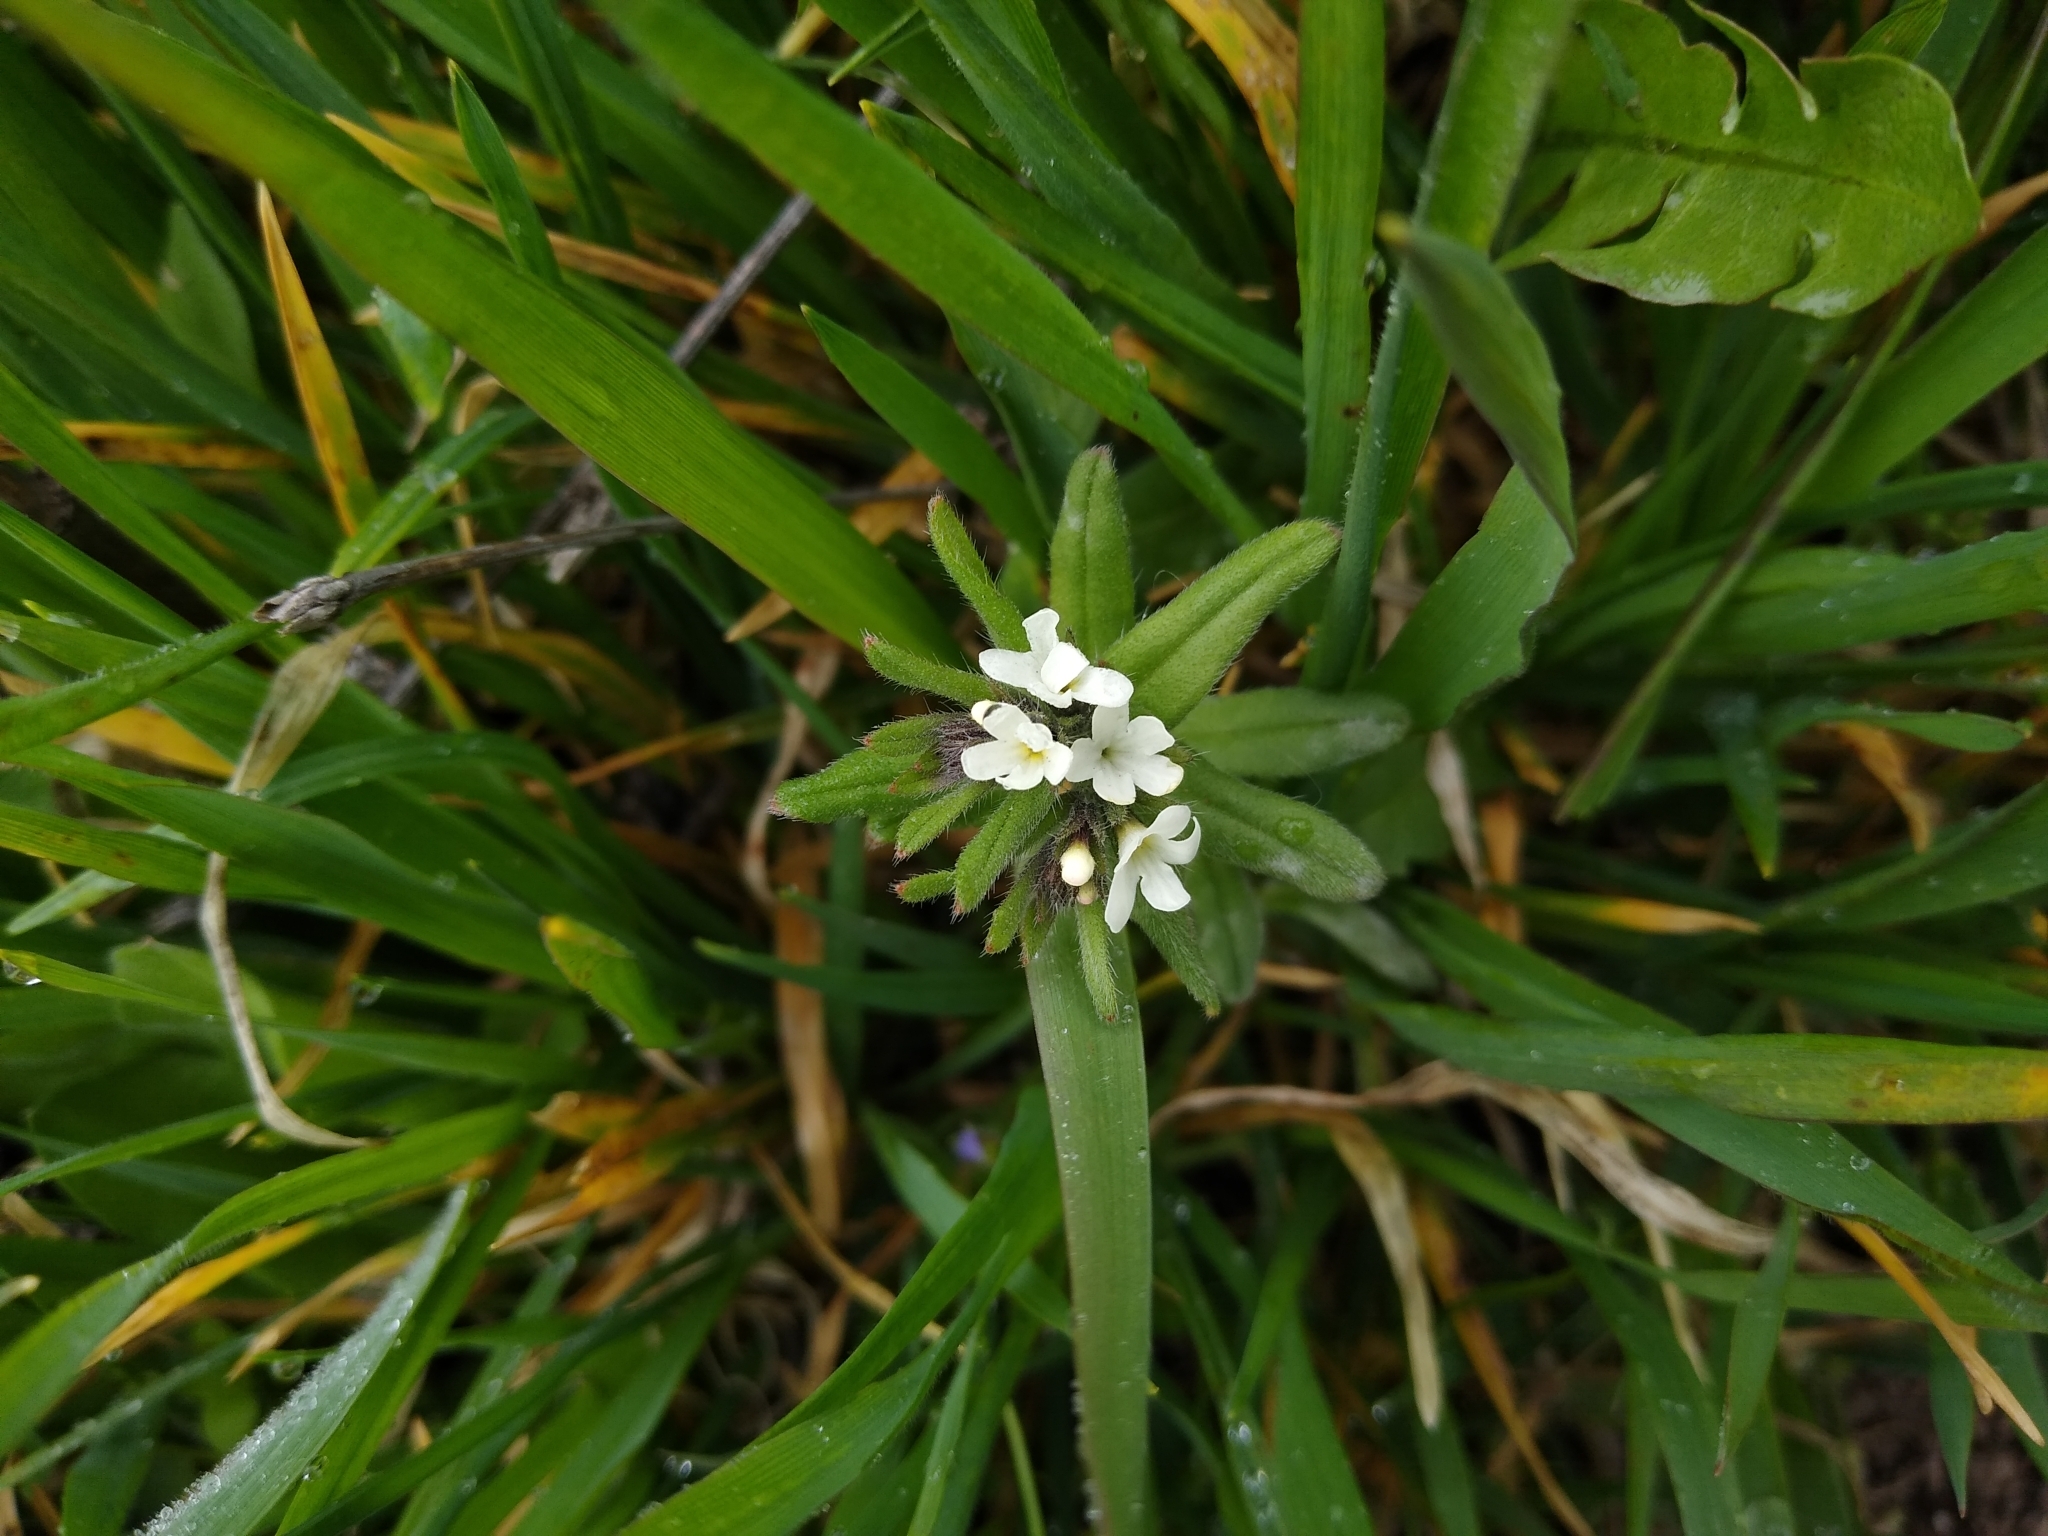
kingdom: Plantae
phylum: Tracheophyta
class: Magnoliopsida
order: Boraginales
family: Boraginaceae
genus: Buglossoides
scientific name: Buglossoides arvensis
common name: Corn gromwell
